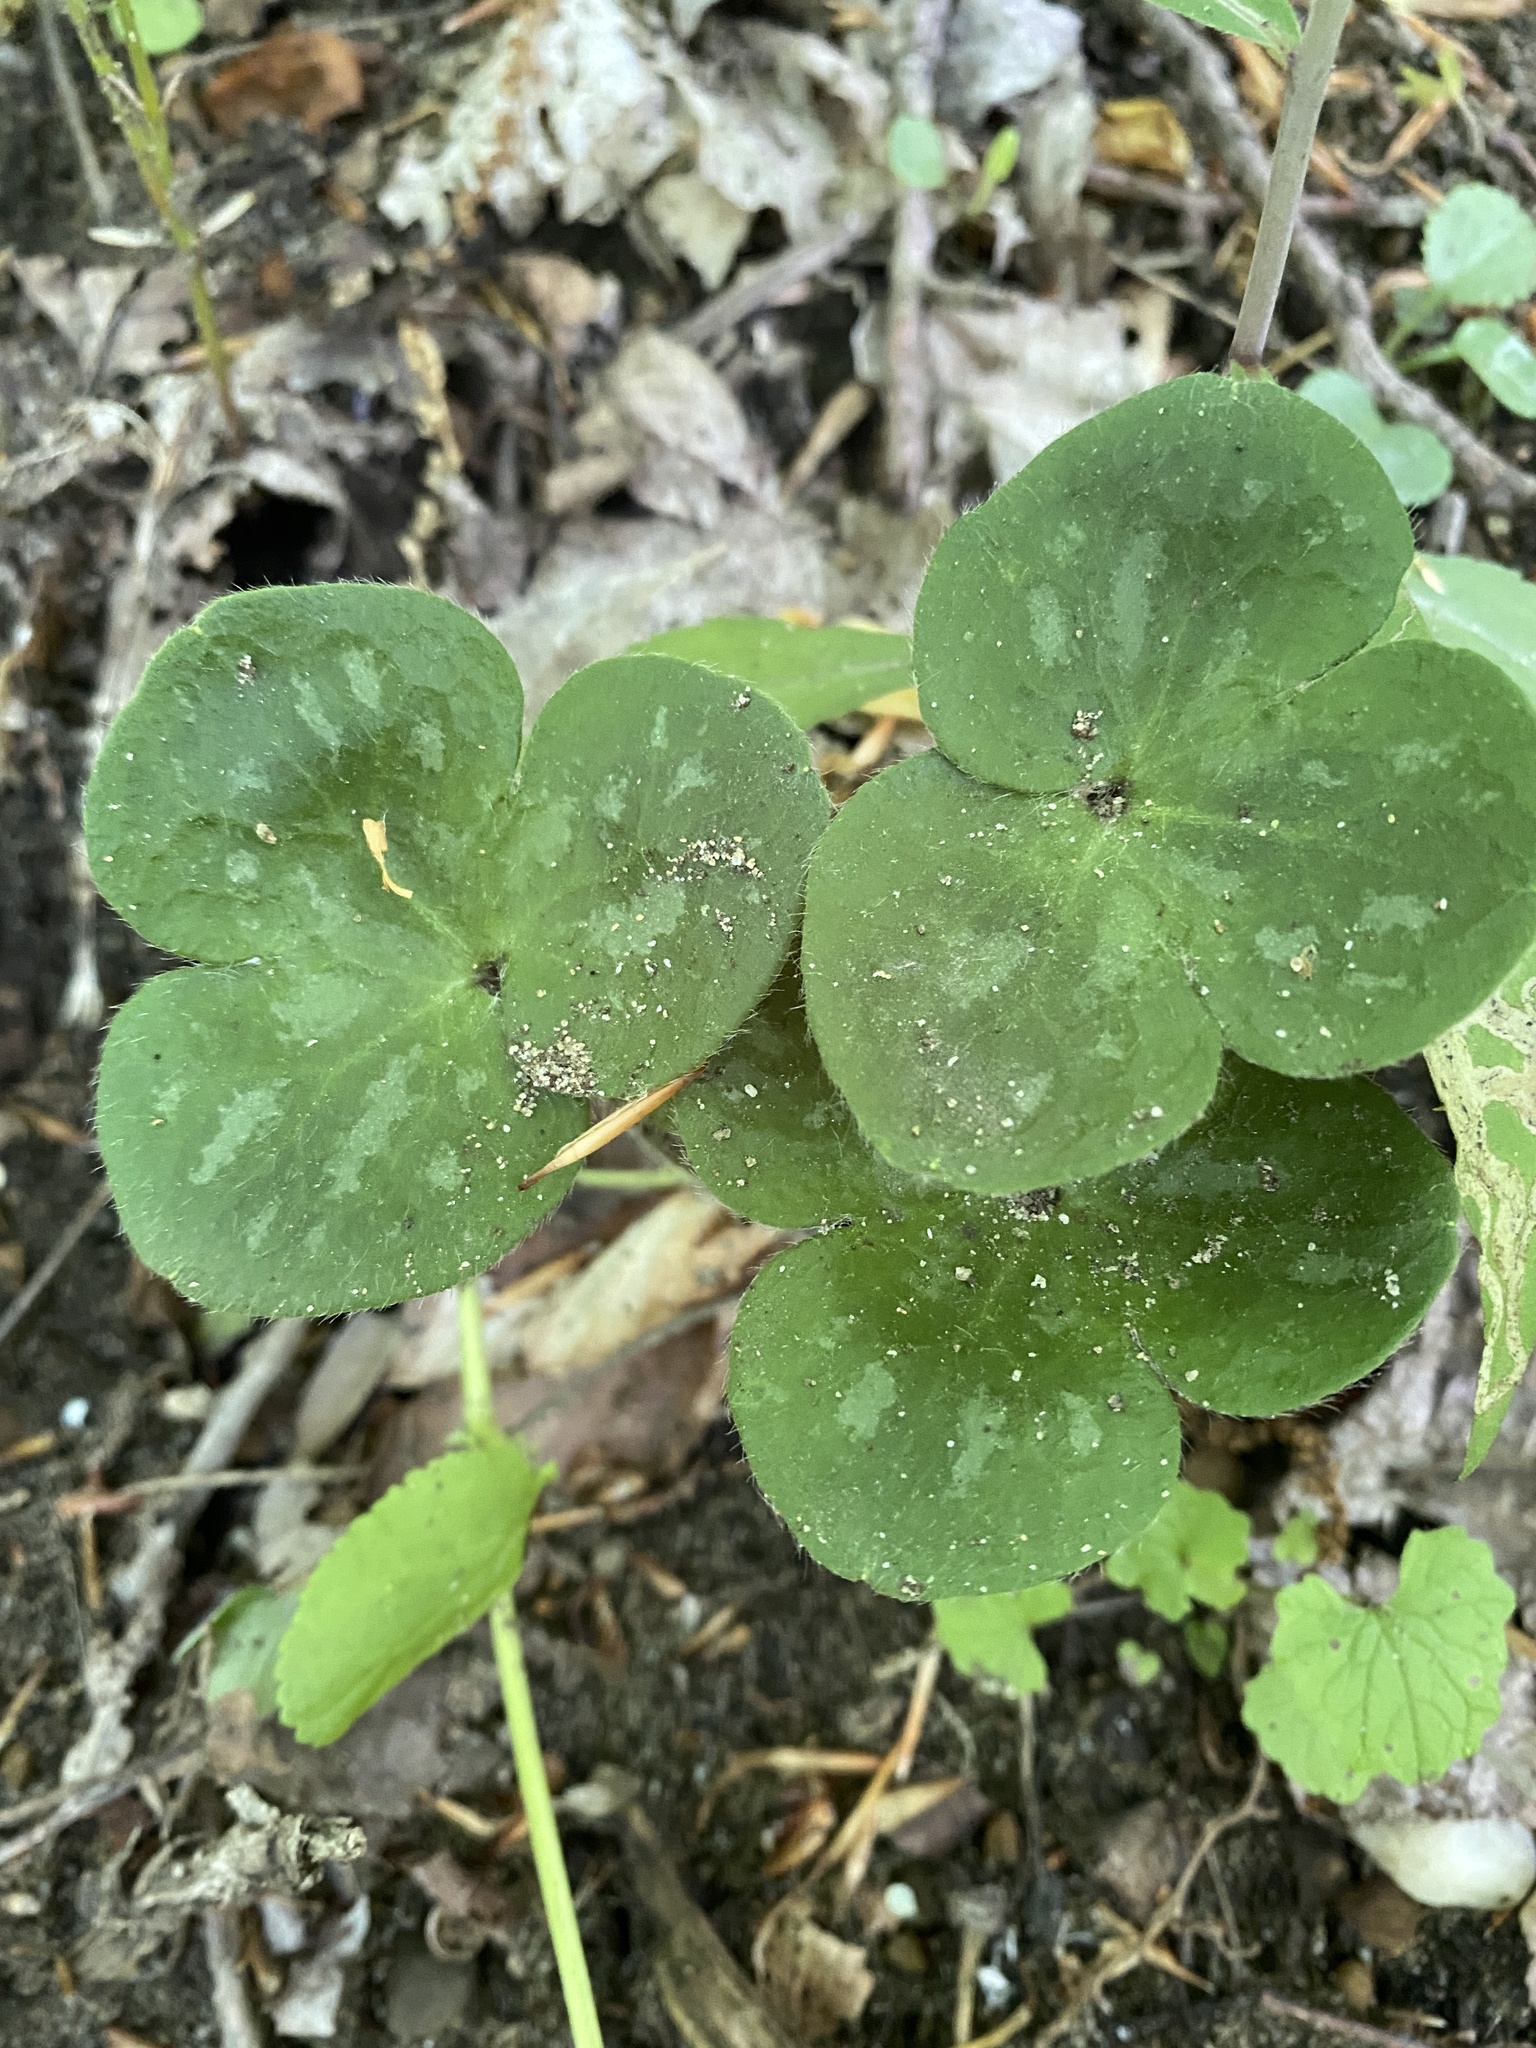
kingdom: Plantae
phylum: Tracheophyta
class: Magnoliopsida
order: Ranunculales
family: Ranunculaceae
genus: Hepatica
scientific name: Hepatica americana
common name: American hepatica
